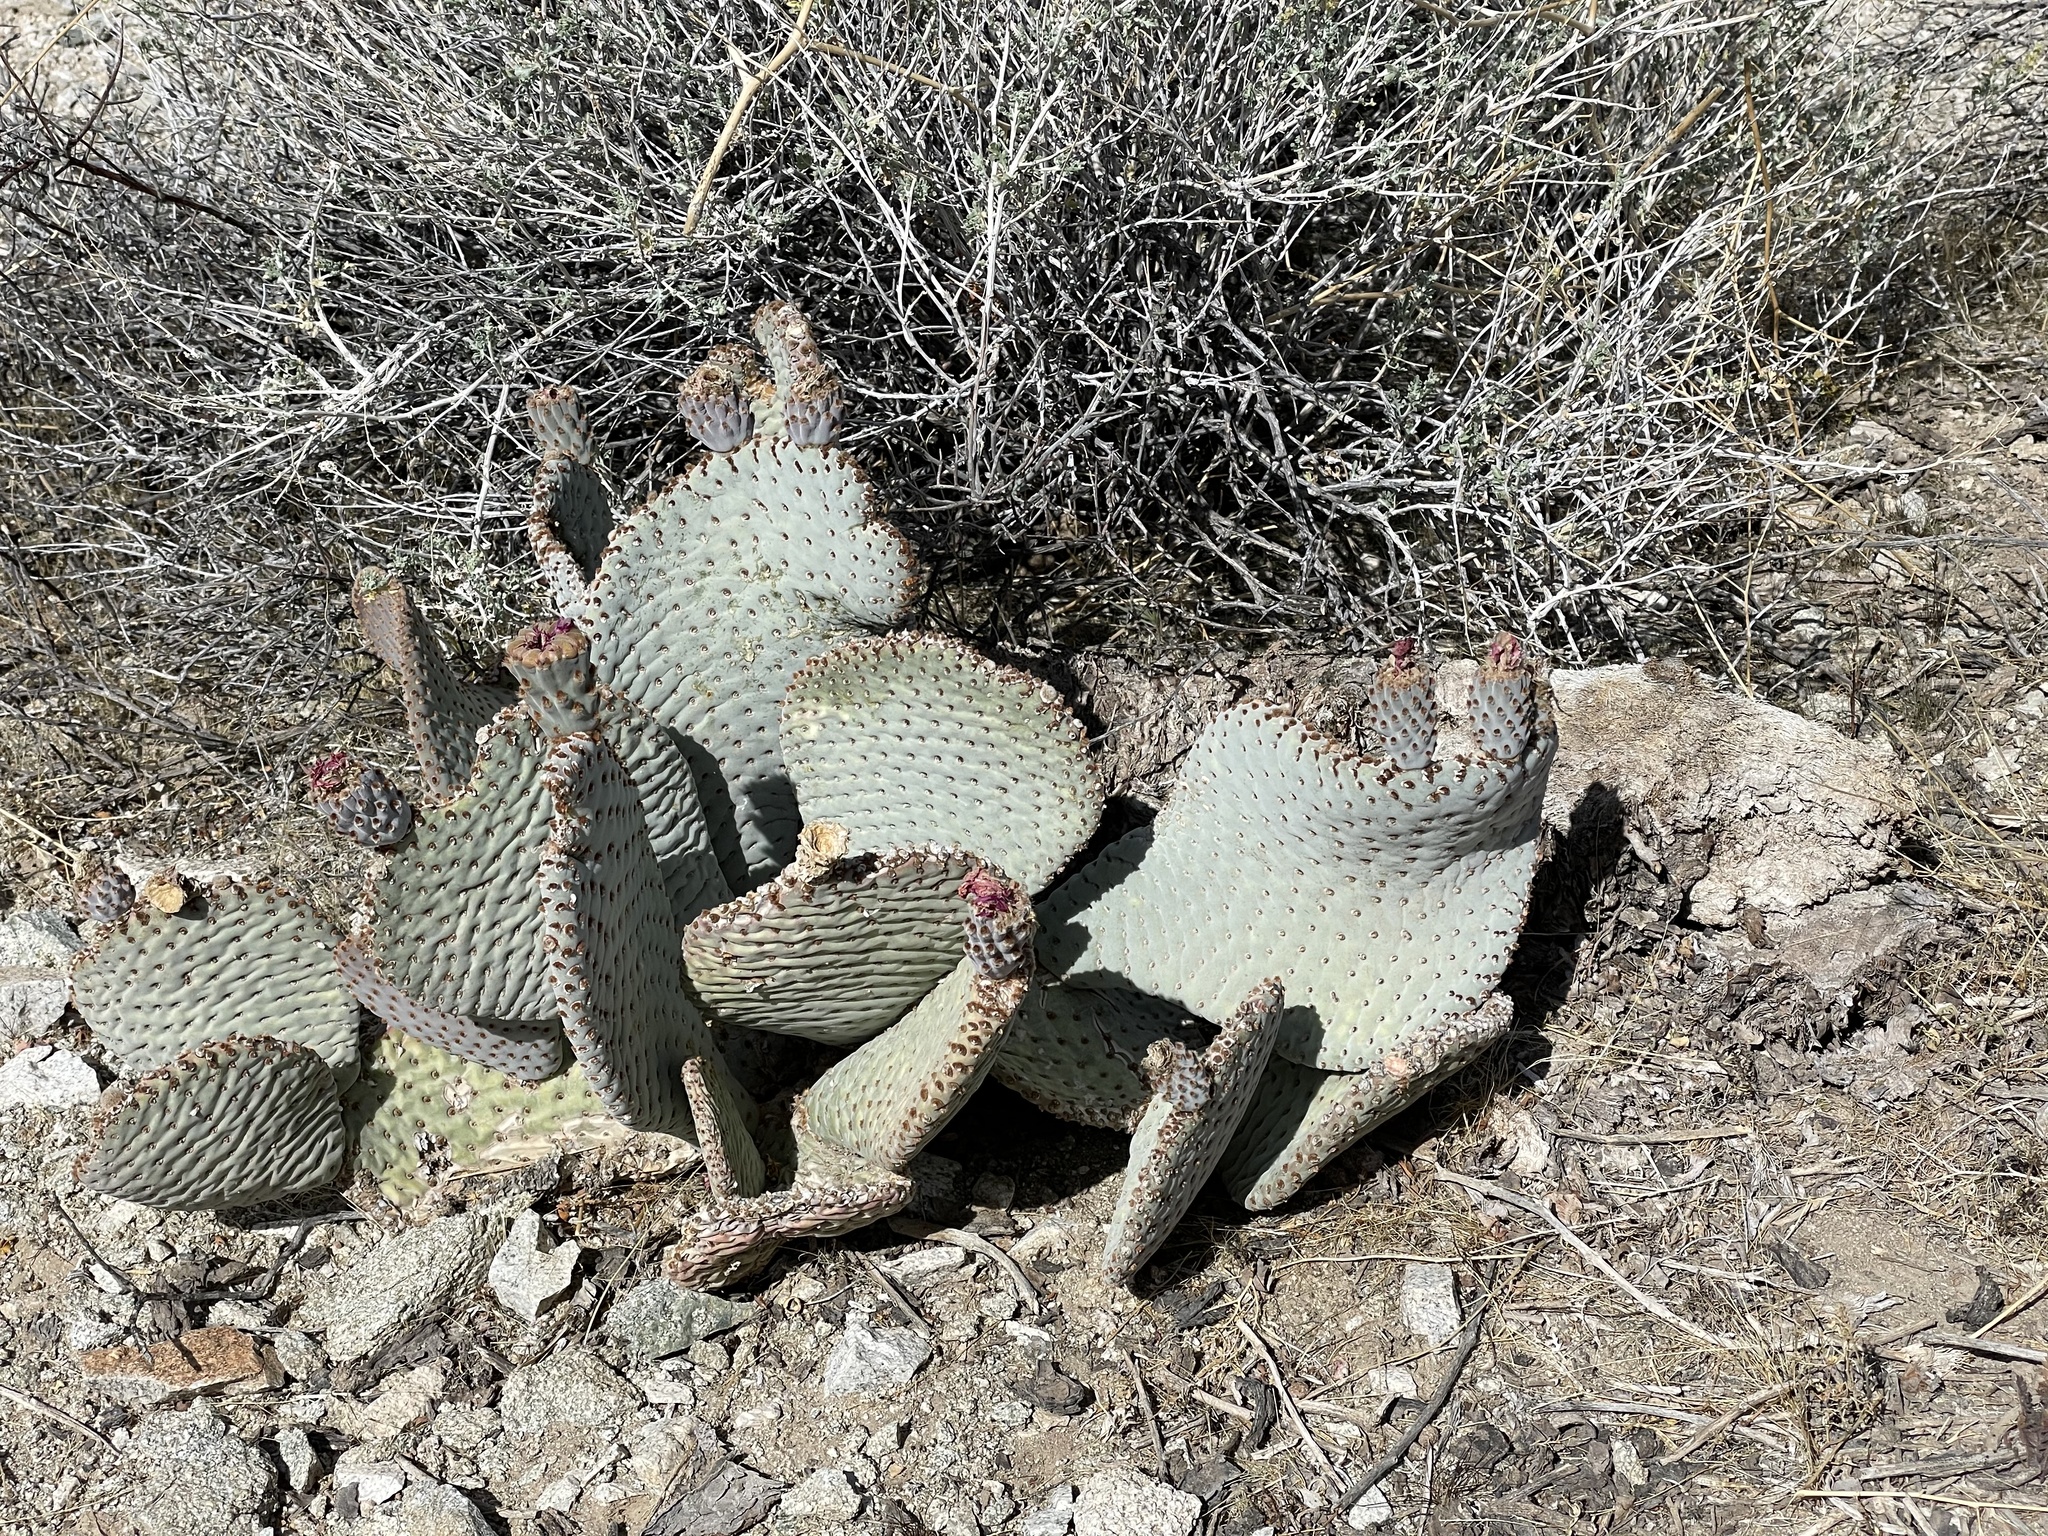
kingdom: Plantae
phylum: Tracheophyta
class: Magnoliopsida
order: Caryophyllales
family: Cactaceae
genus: Opuntia
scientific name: Opuntia basilaris
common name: Beavertail prickly-pear
